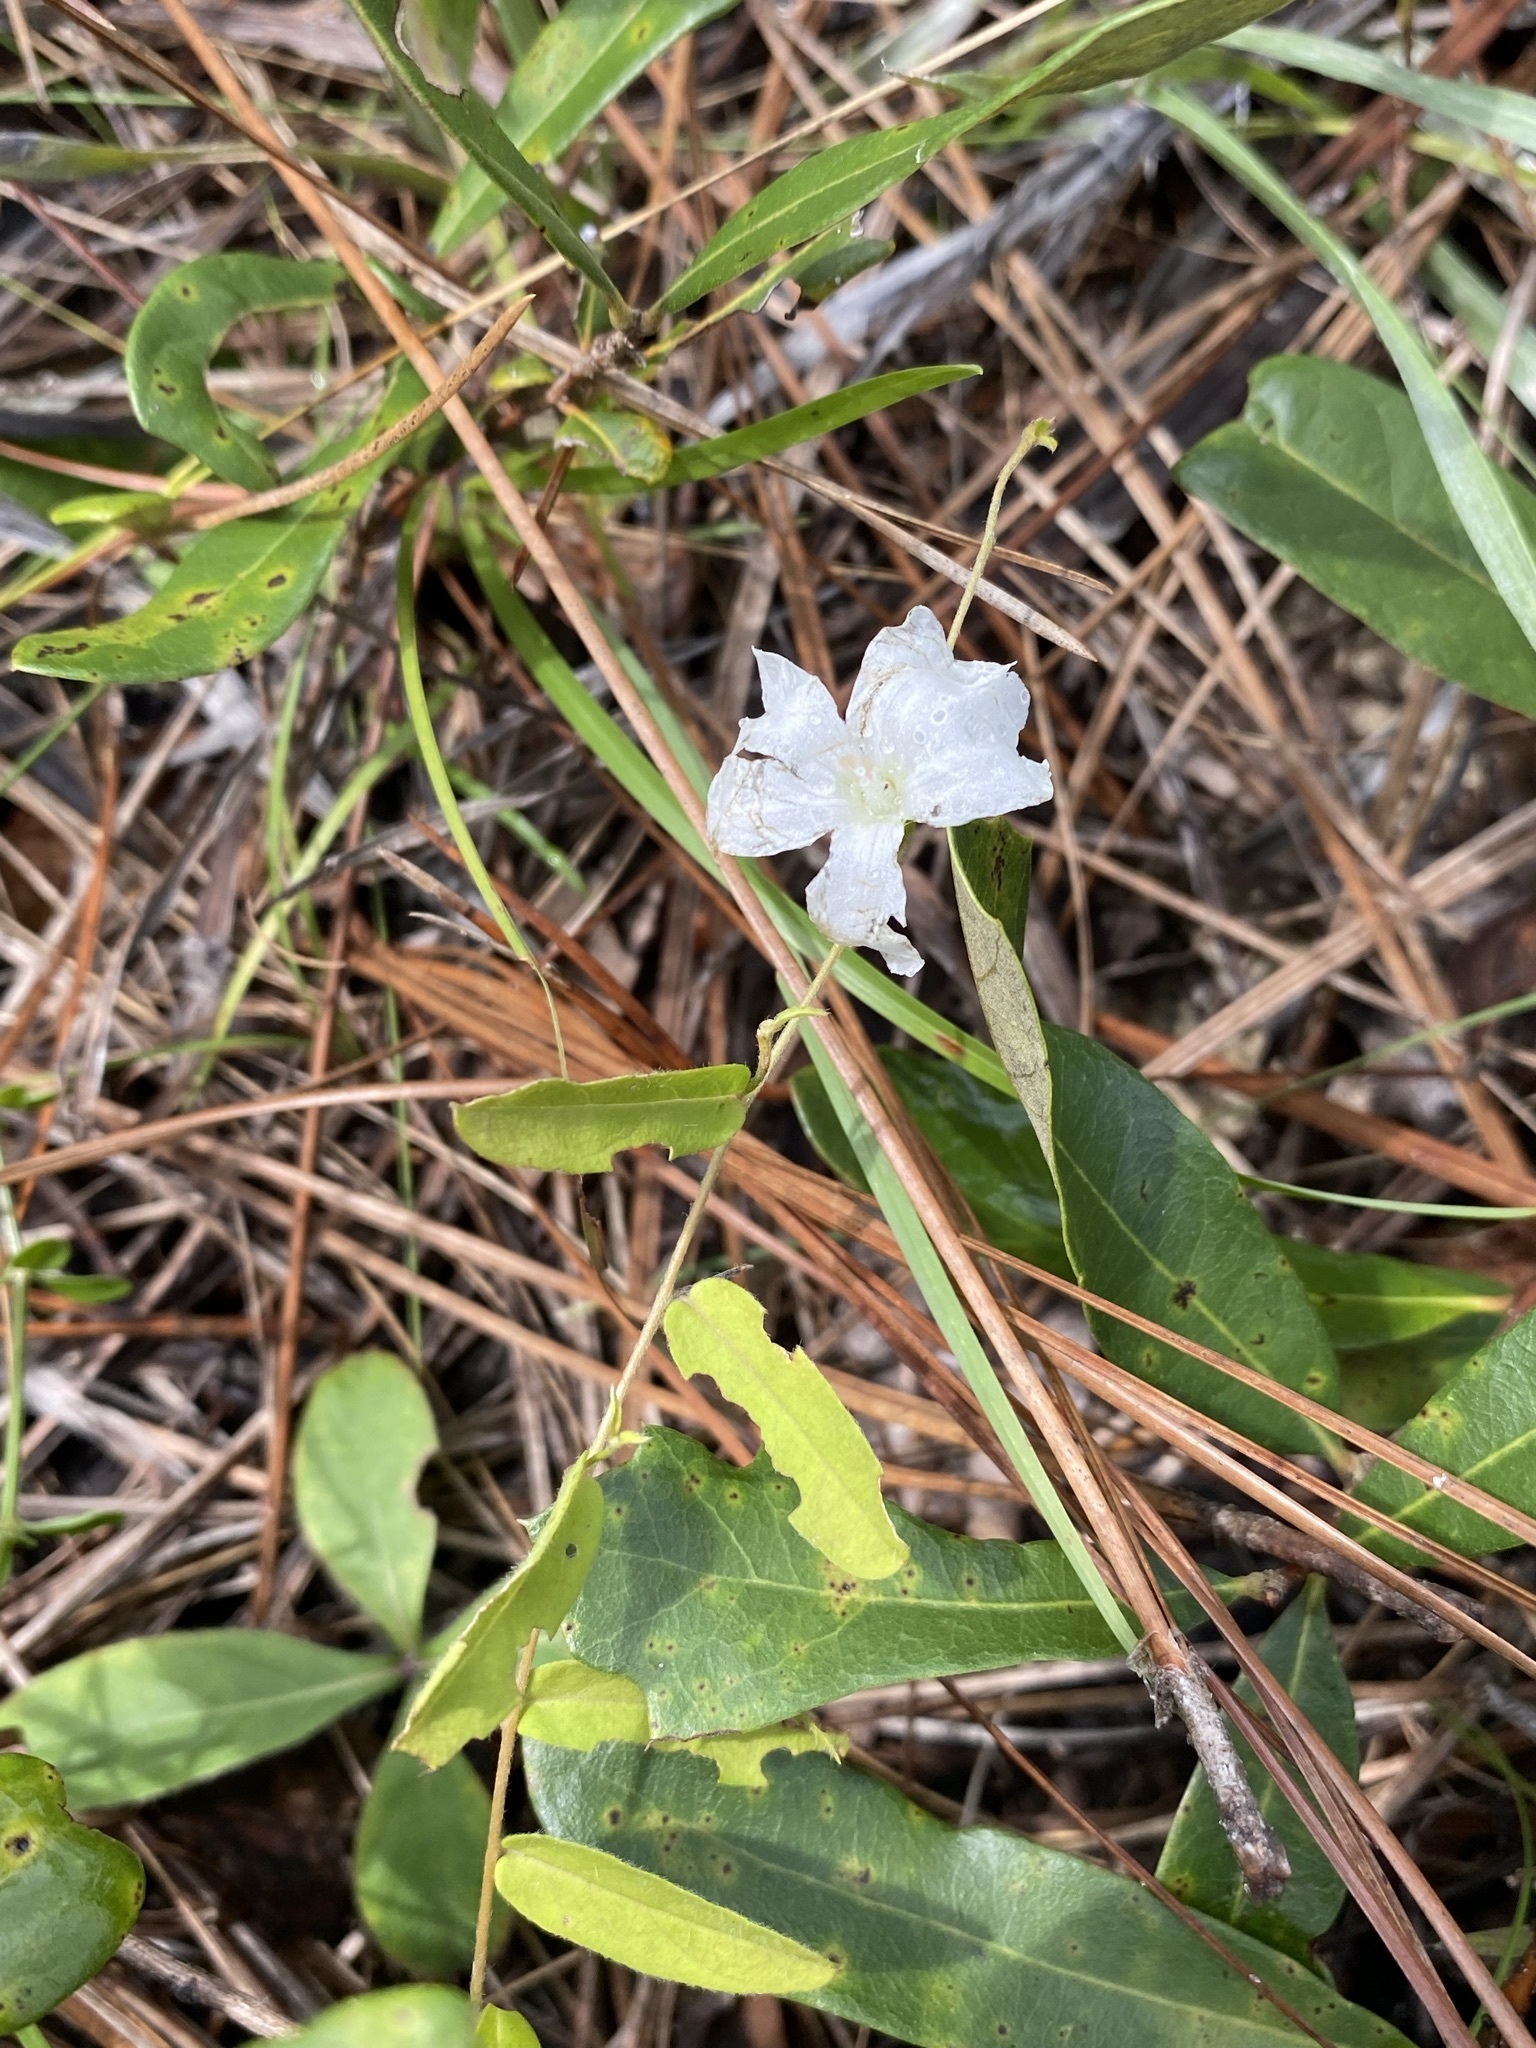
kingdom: Plantae
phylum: Tracheophyta
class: Magnoliopsida
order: Solanales
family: Convolvulaceae
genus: Stylisma
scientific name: Stylisma patens
